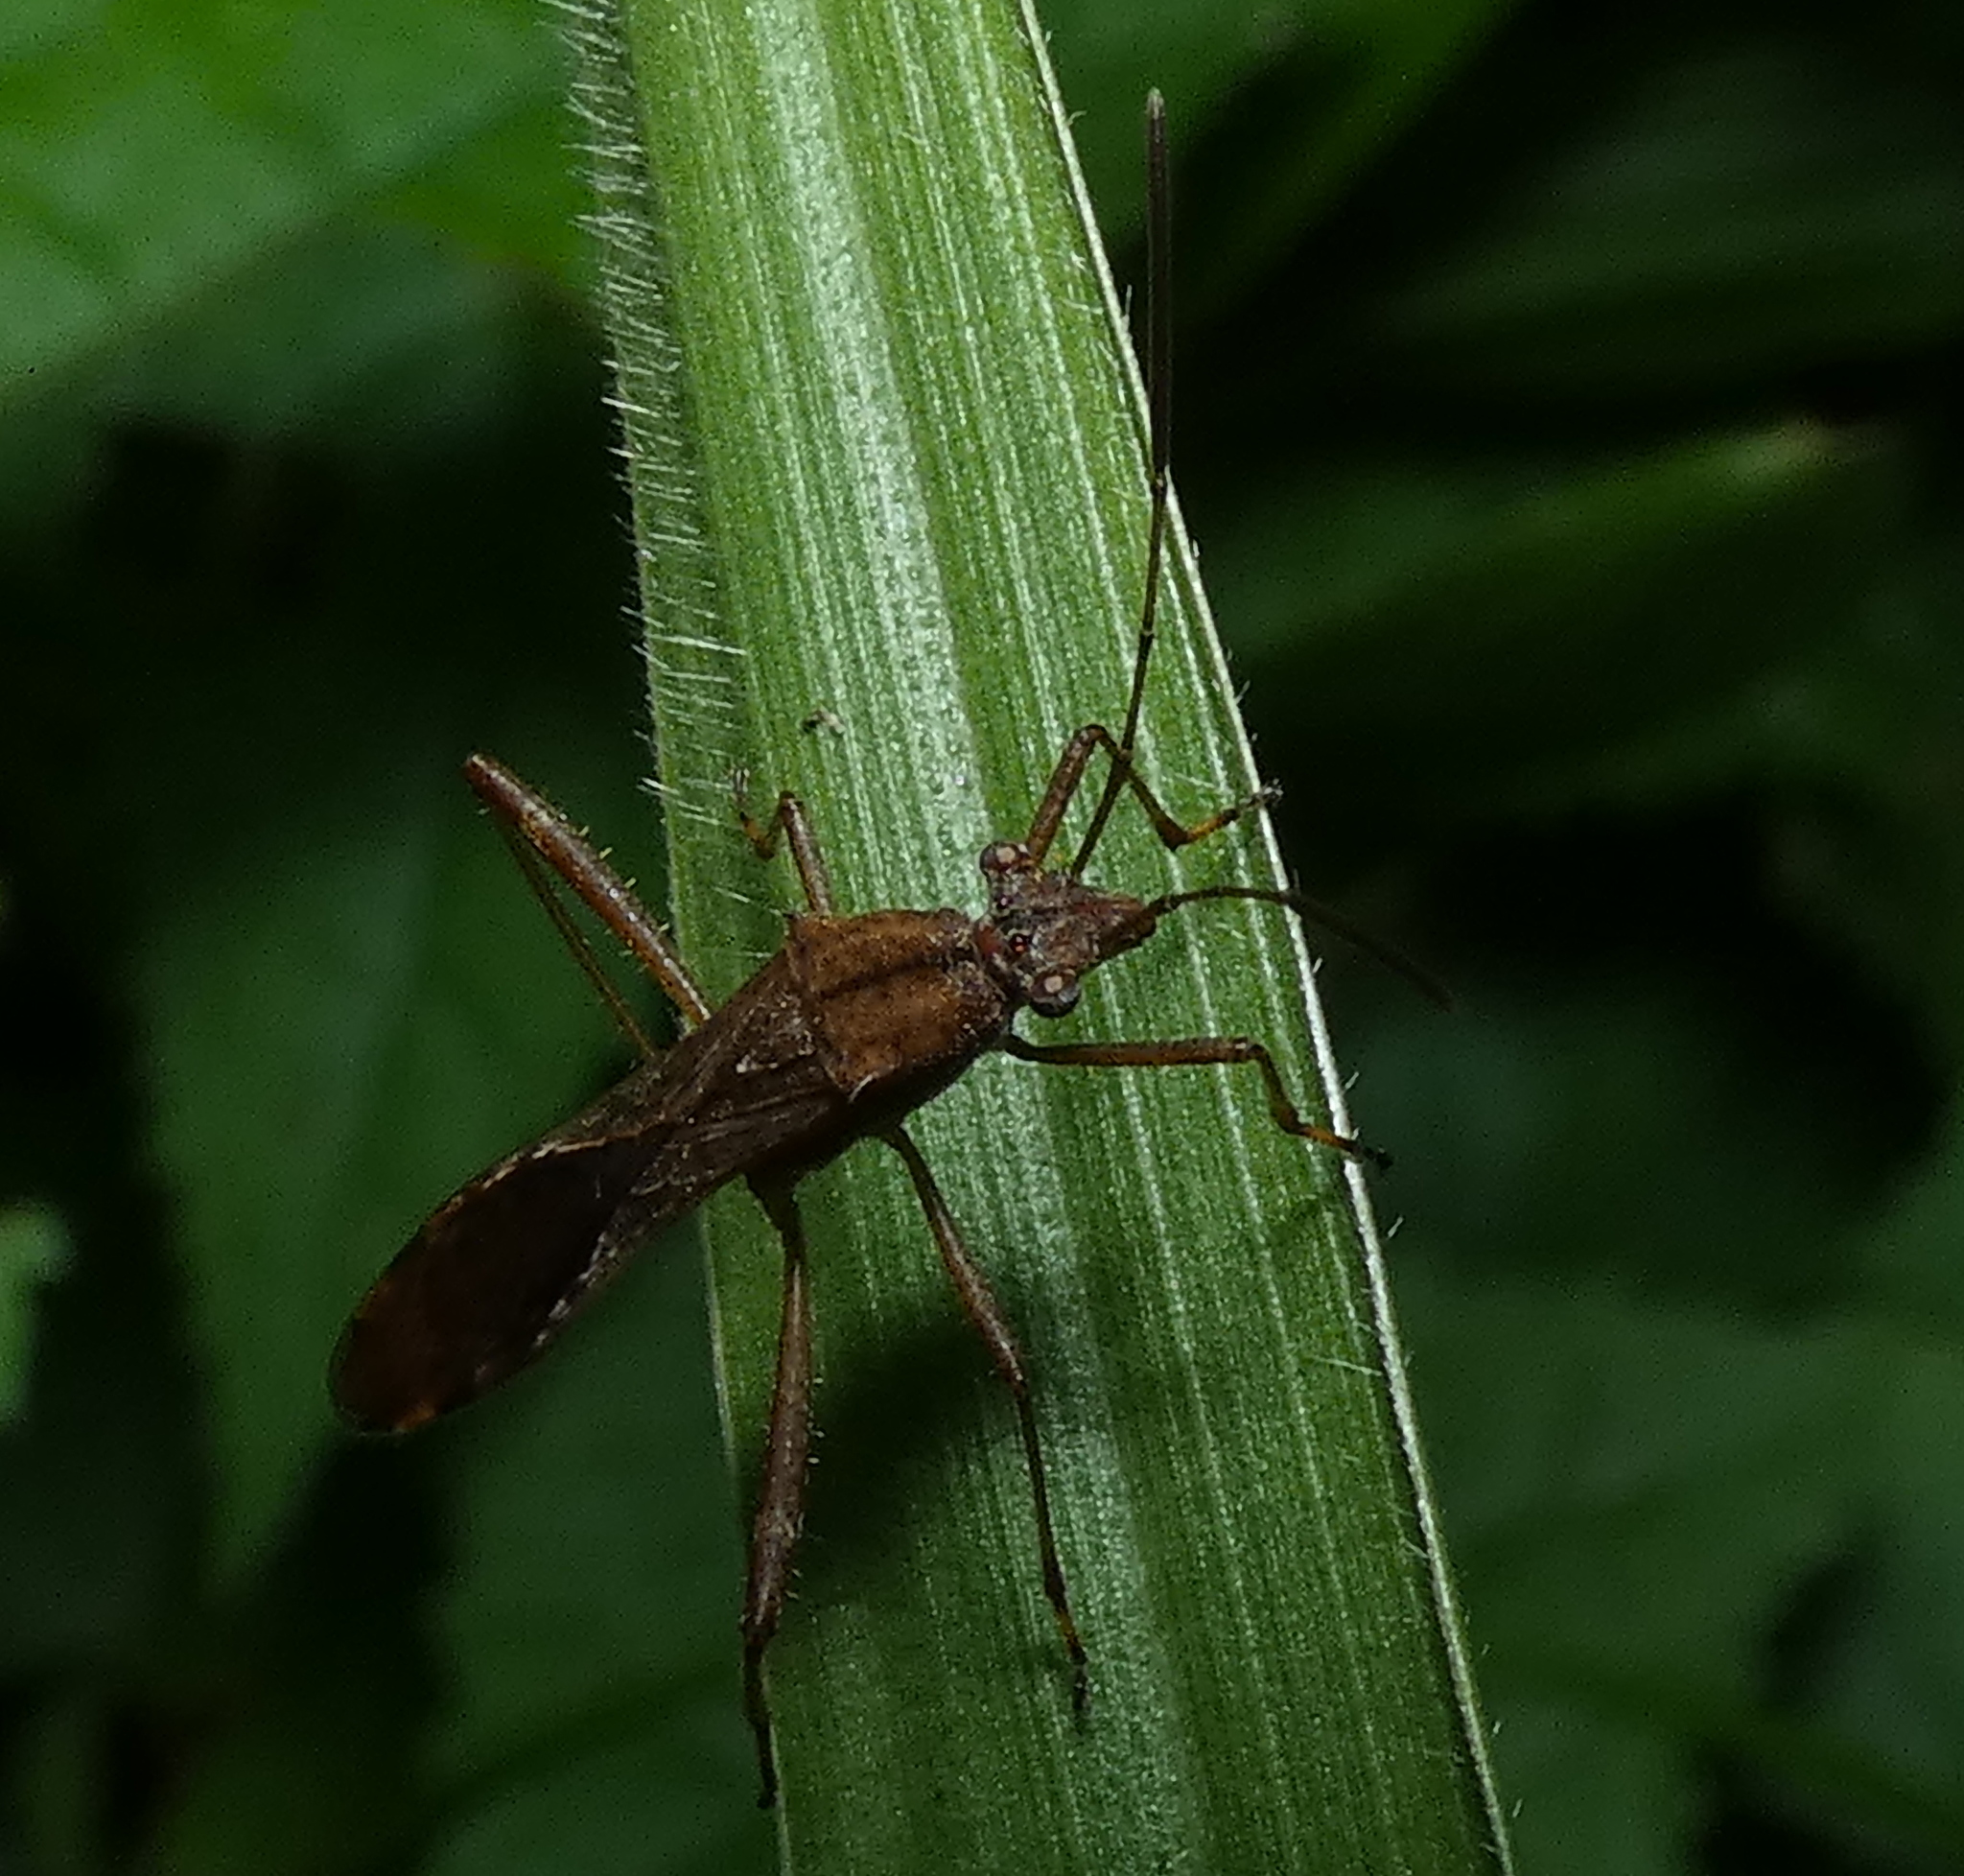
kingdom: Animalia
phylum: Arthropoda
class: Insecta
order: Hemiptera
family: Alydidae
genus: Neomegalotomus
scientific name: Neomegalotomus parvus
